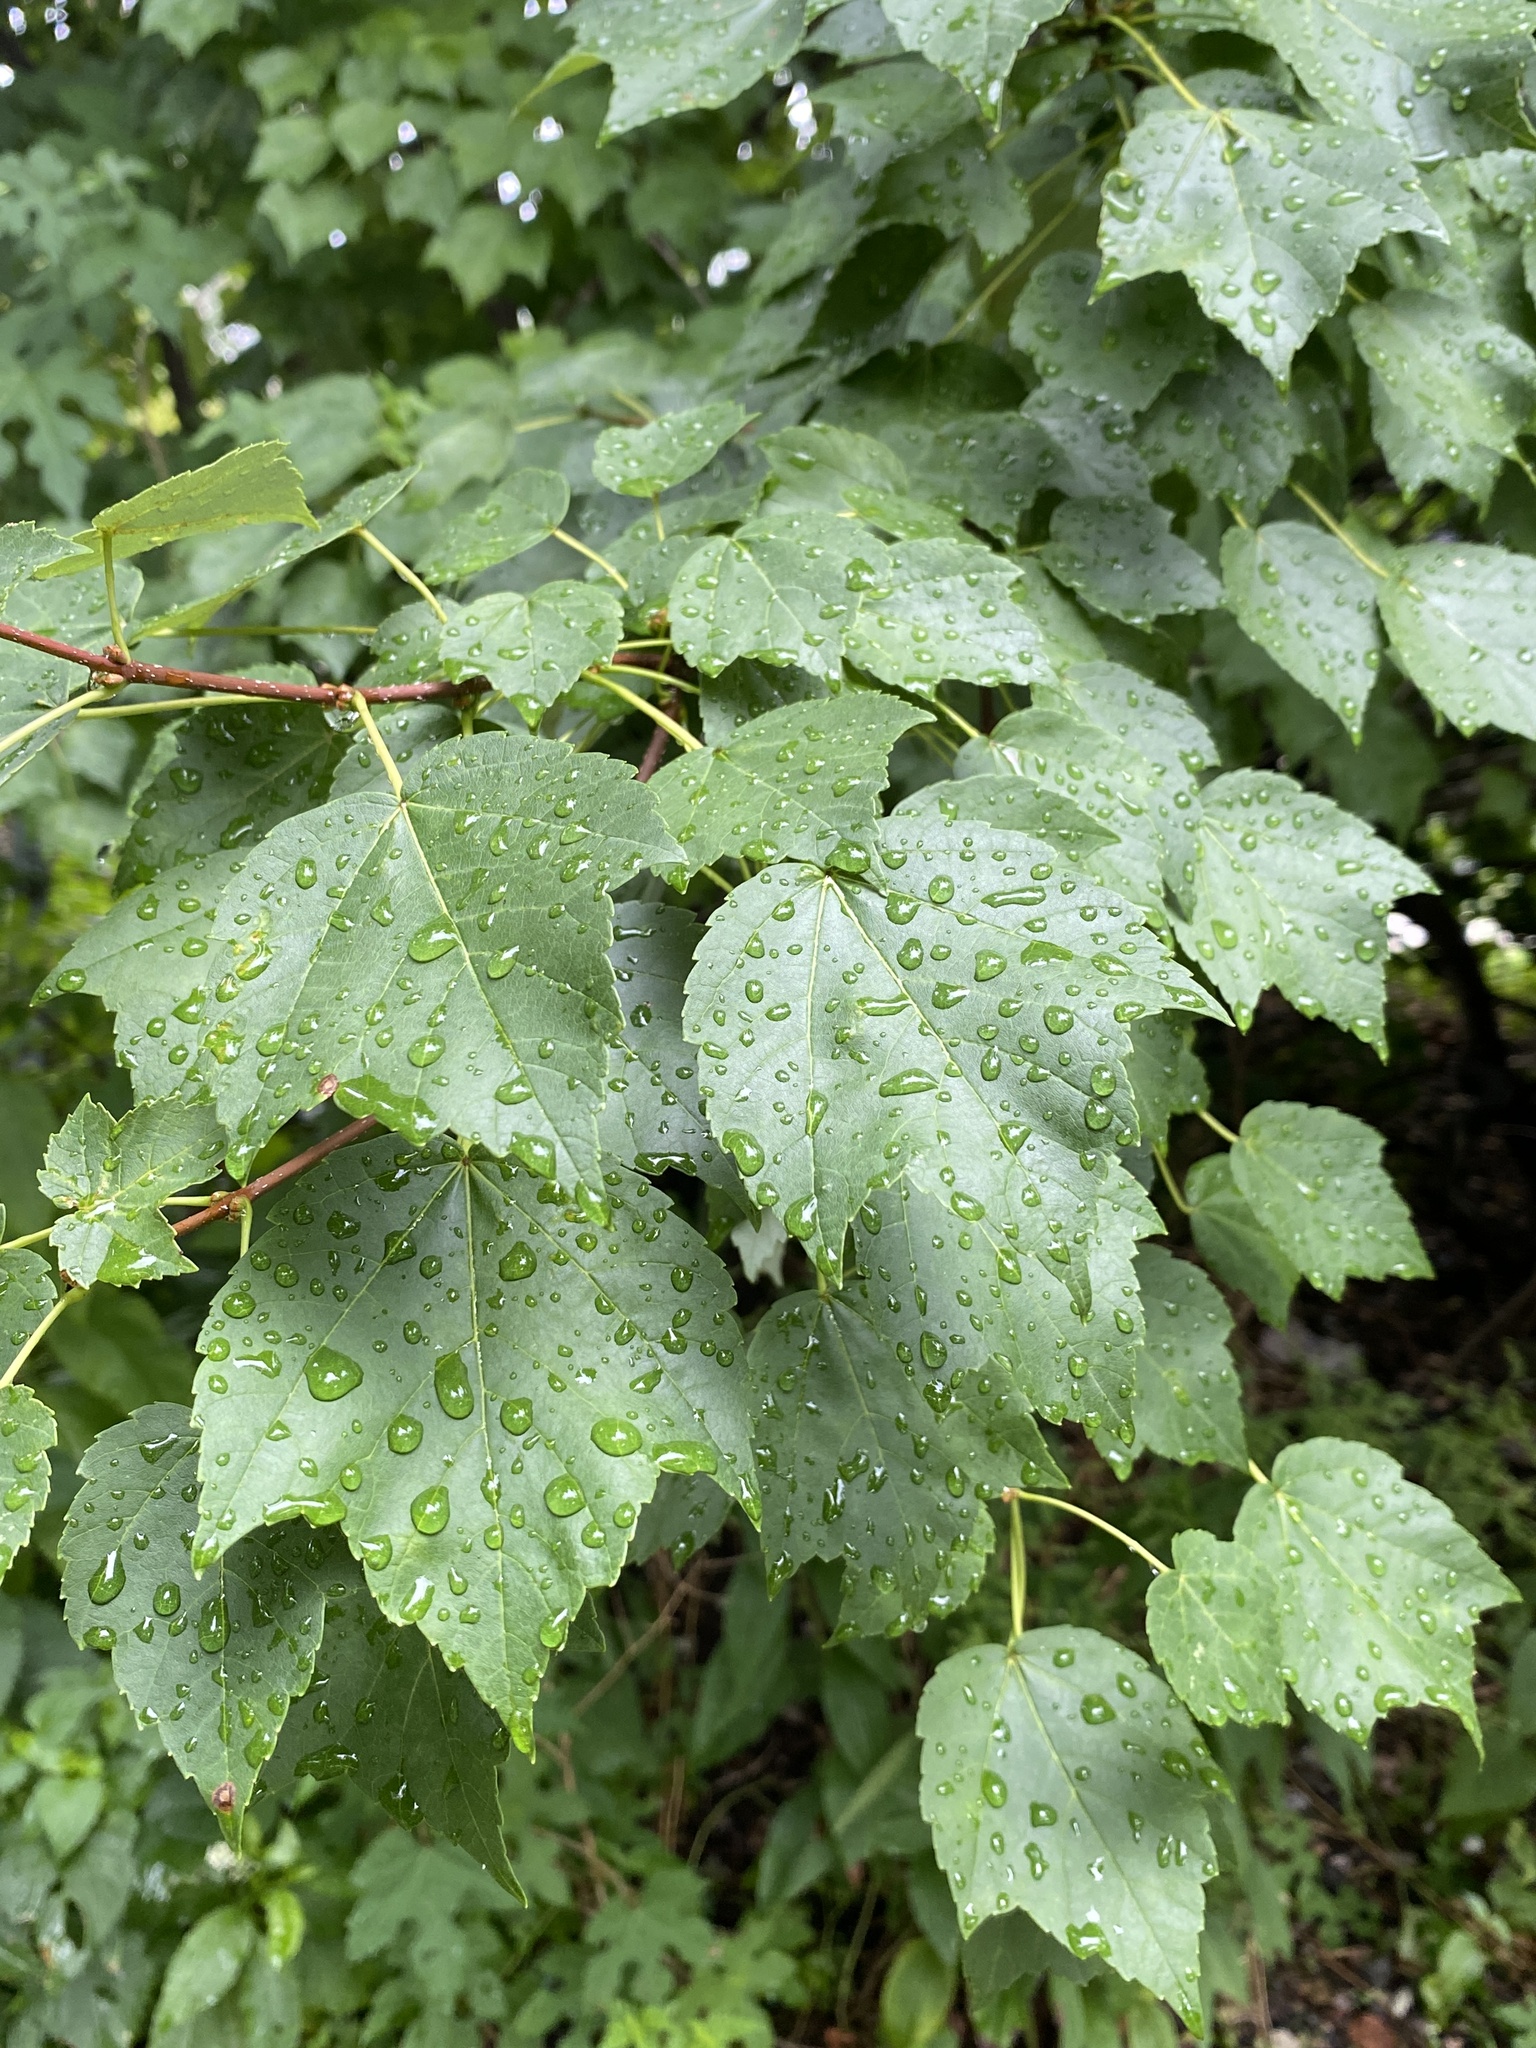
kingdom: Plantae
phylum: Tracheophyta
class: Magnoliopsida
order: Sapindales
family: Sapindaceae
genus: Acer
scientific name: Acer rubrum
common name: Red maple
